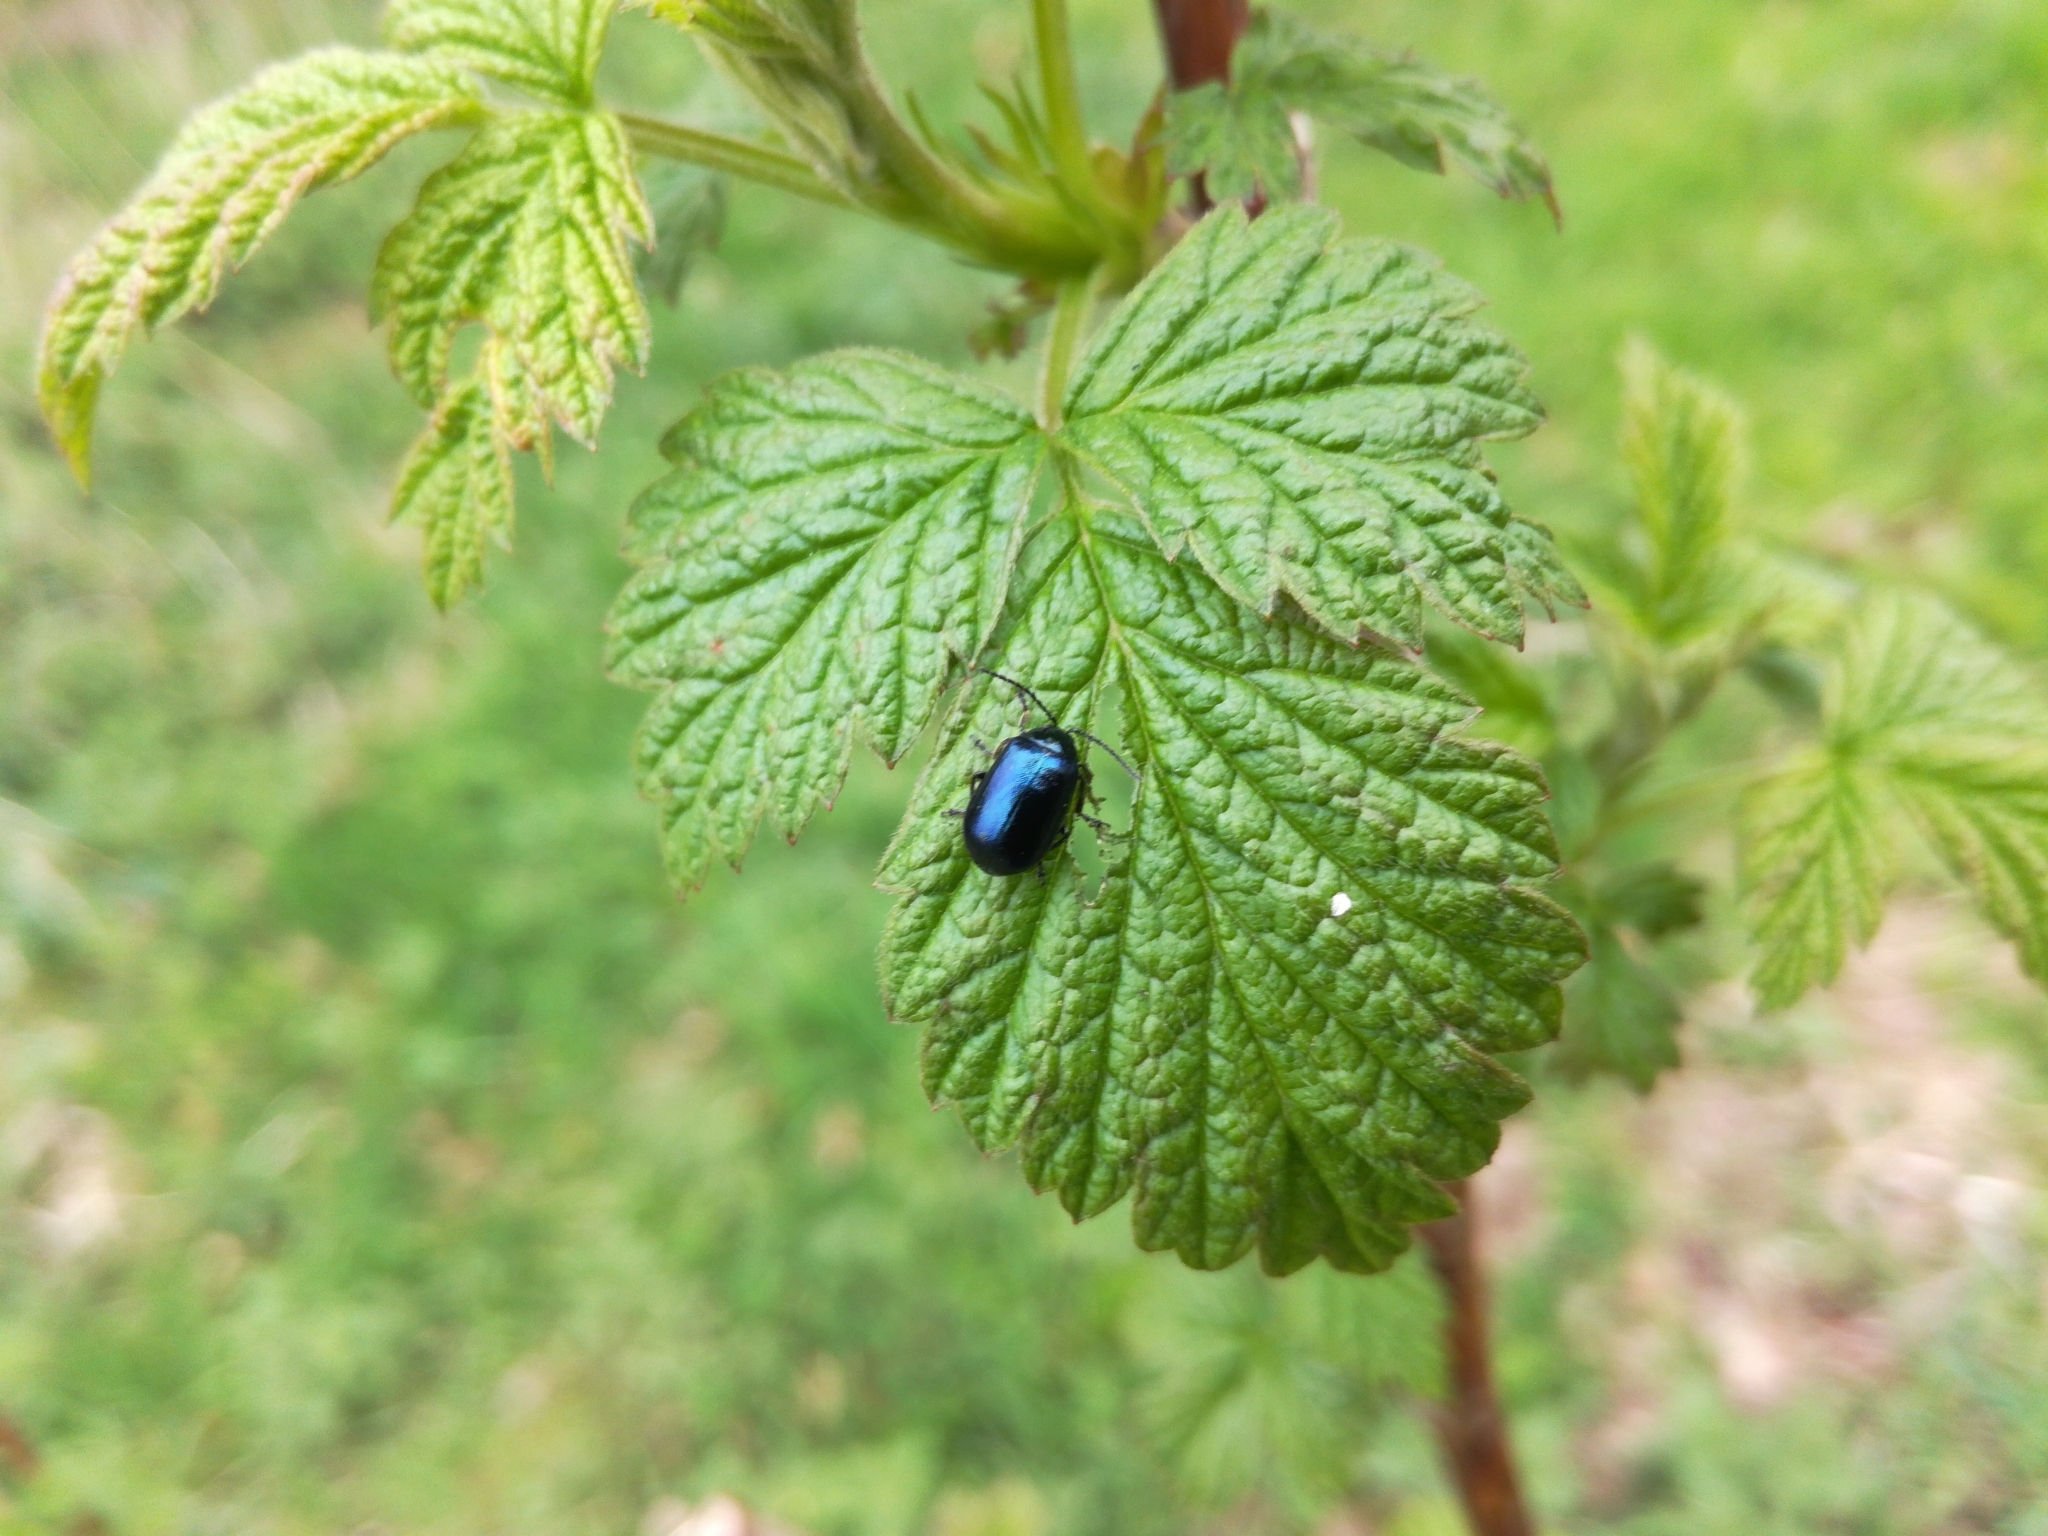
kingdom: Animalia
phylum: Arthropoda
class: Insecta
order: Coleoptera
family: Chrysomelidae
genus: Agelastica
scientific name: Agelastica alni
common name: Alder leaf beetle
